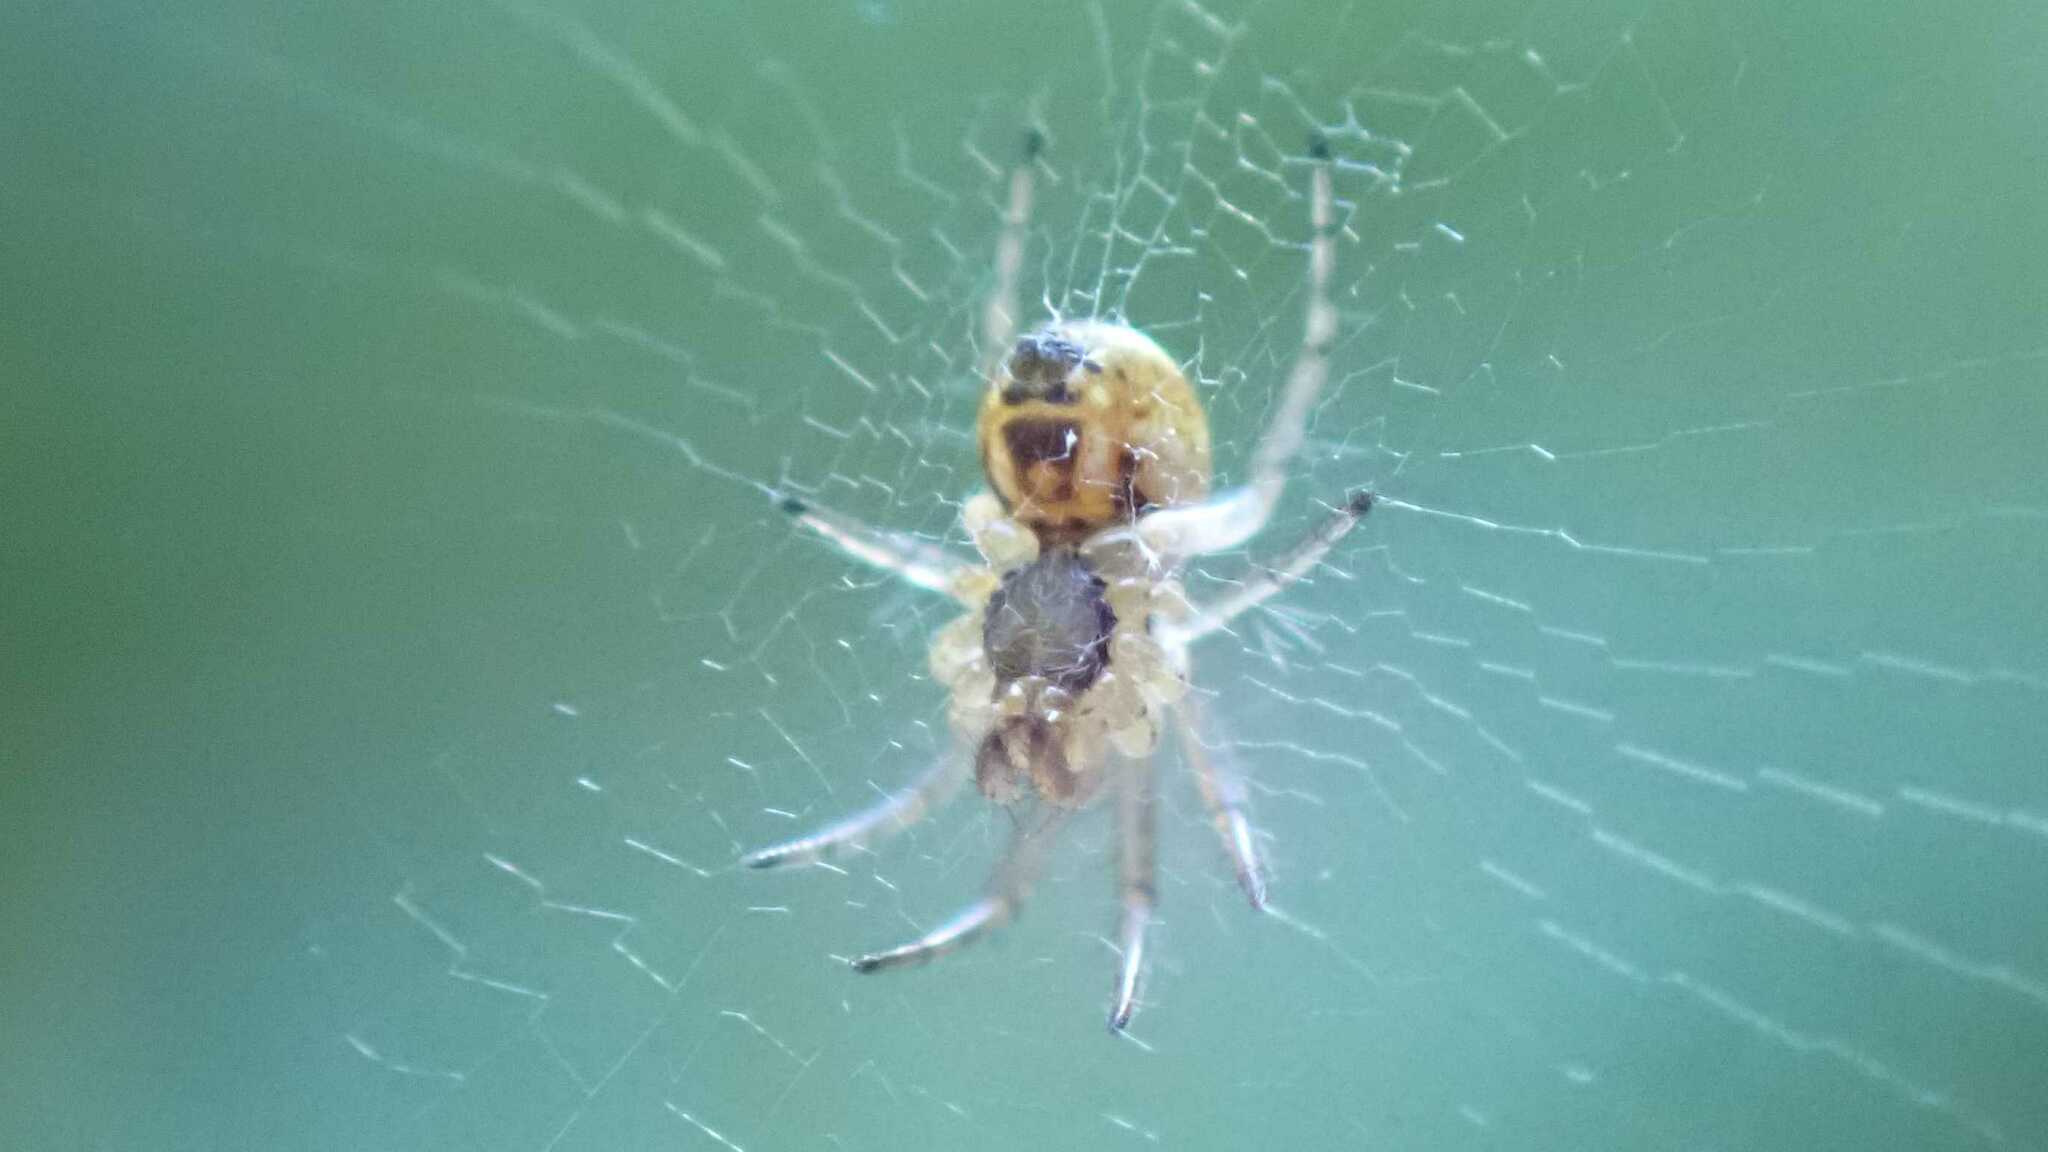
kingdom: Animalia
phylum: Arthropoda
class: Arachnida
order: Araneae
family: Araneidae
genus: Mangora
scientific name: Mangora acalypha
